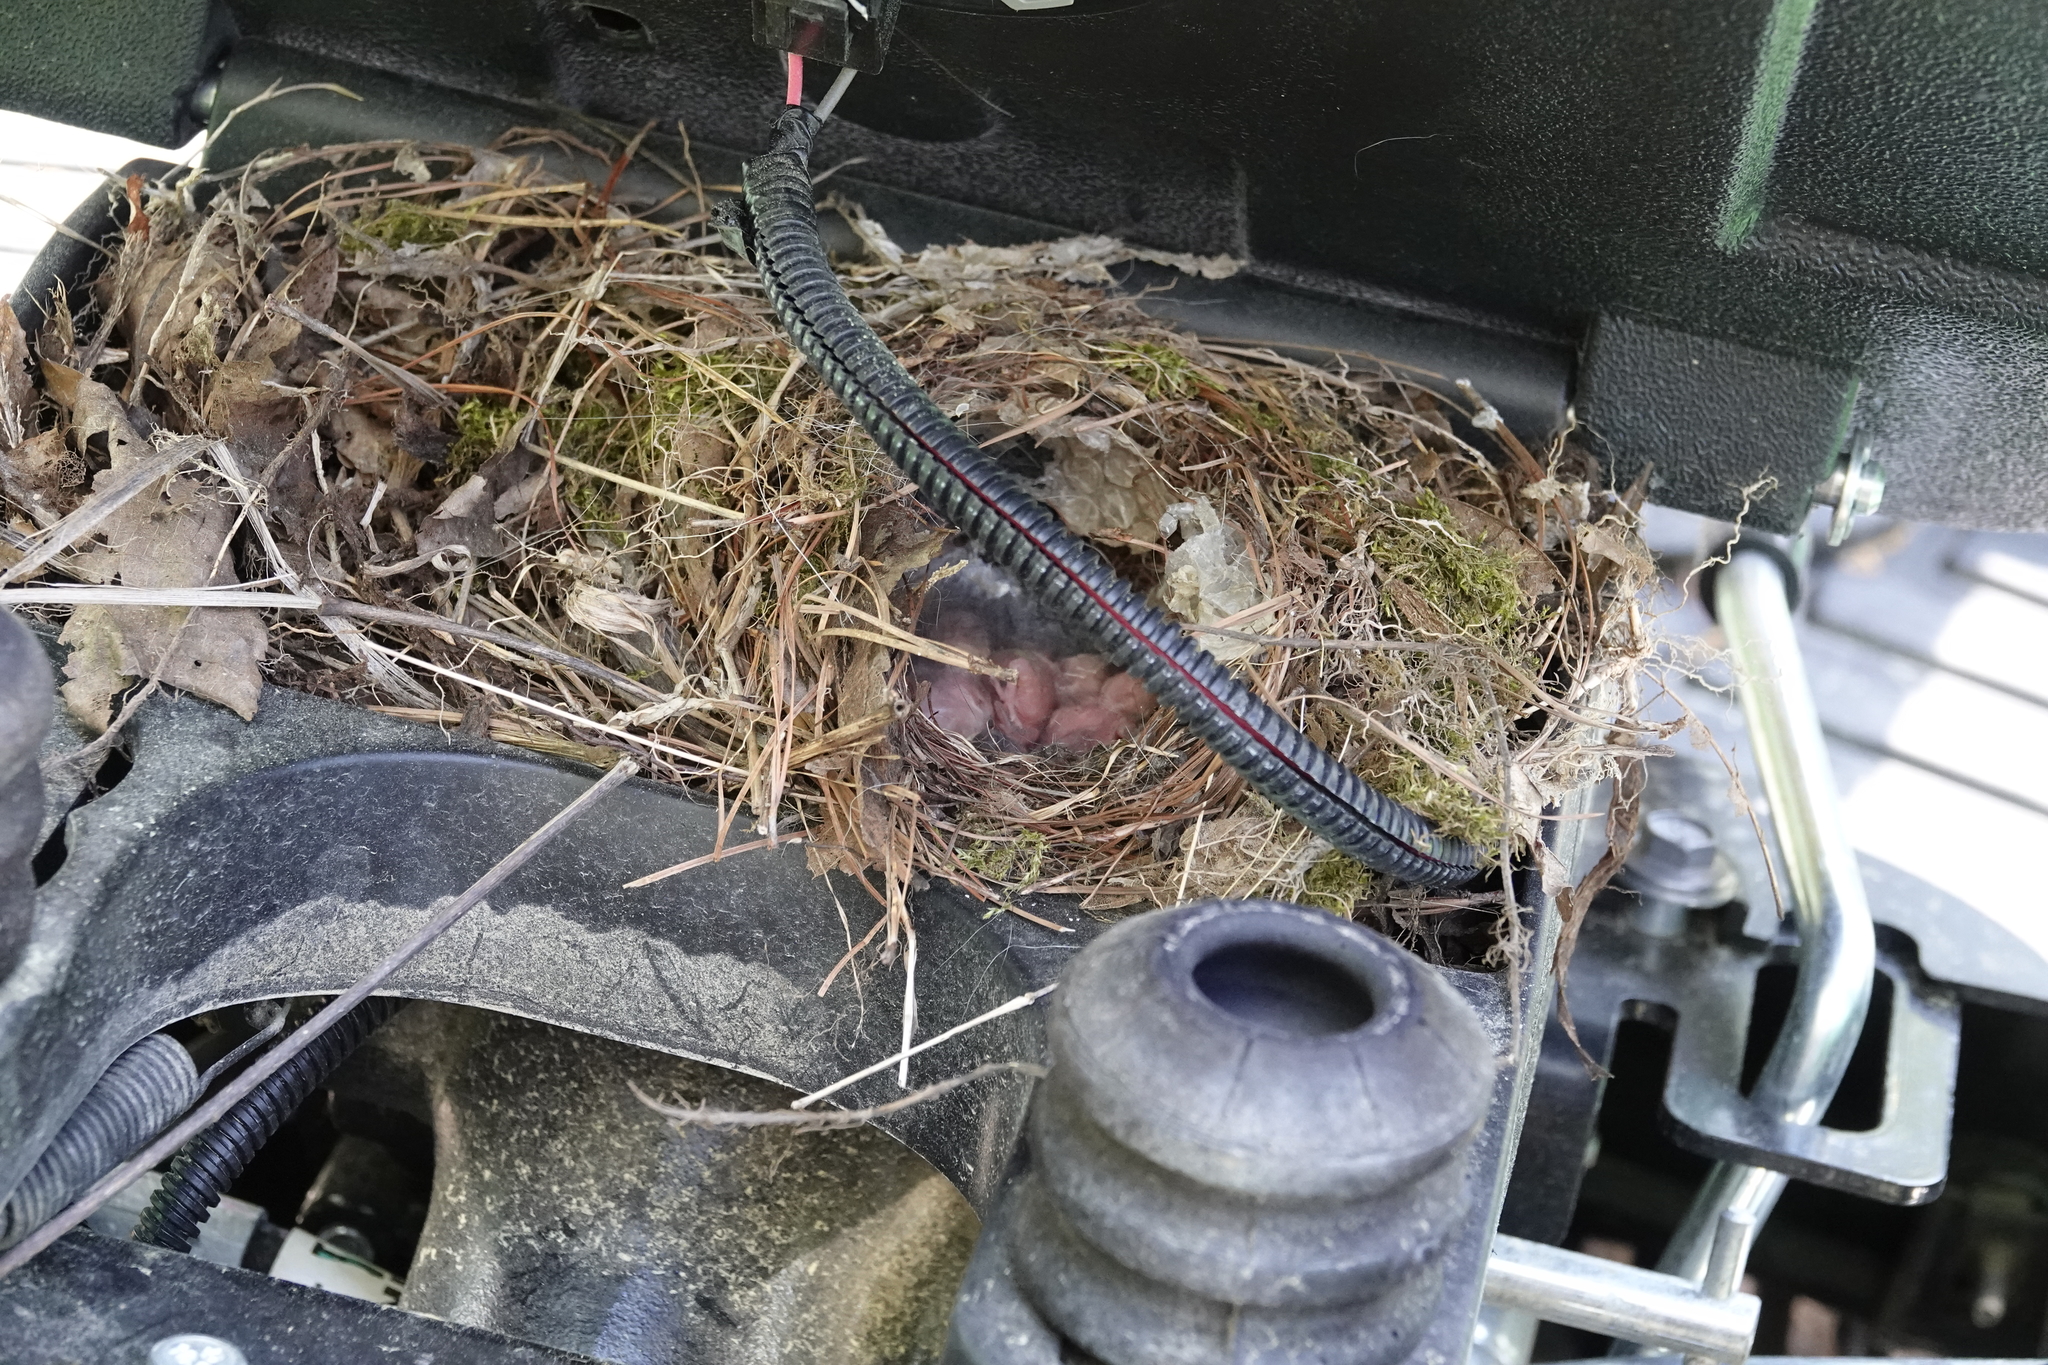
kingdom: Animalia
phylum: Chordata
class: Aves
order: Passeriformes
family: Troglodytidae
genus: Thryothorus
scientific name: Thryothorus ludovicianus
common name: Carolina wren
